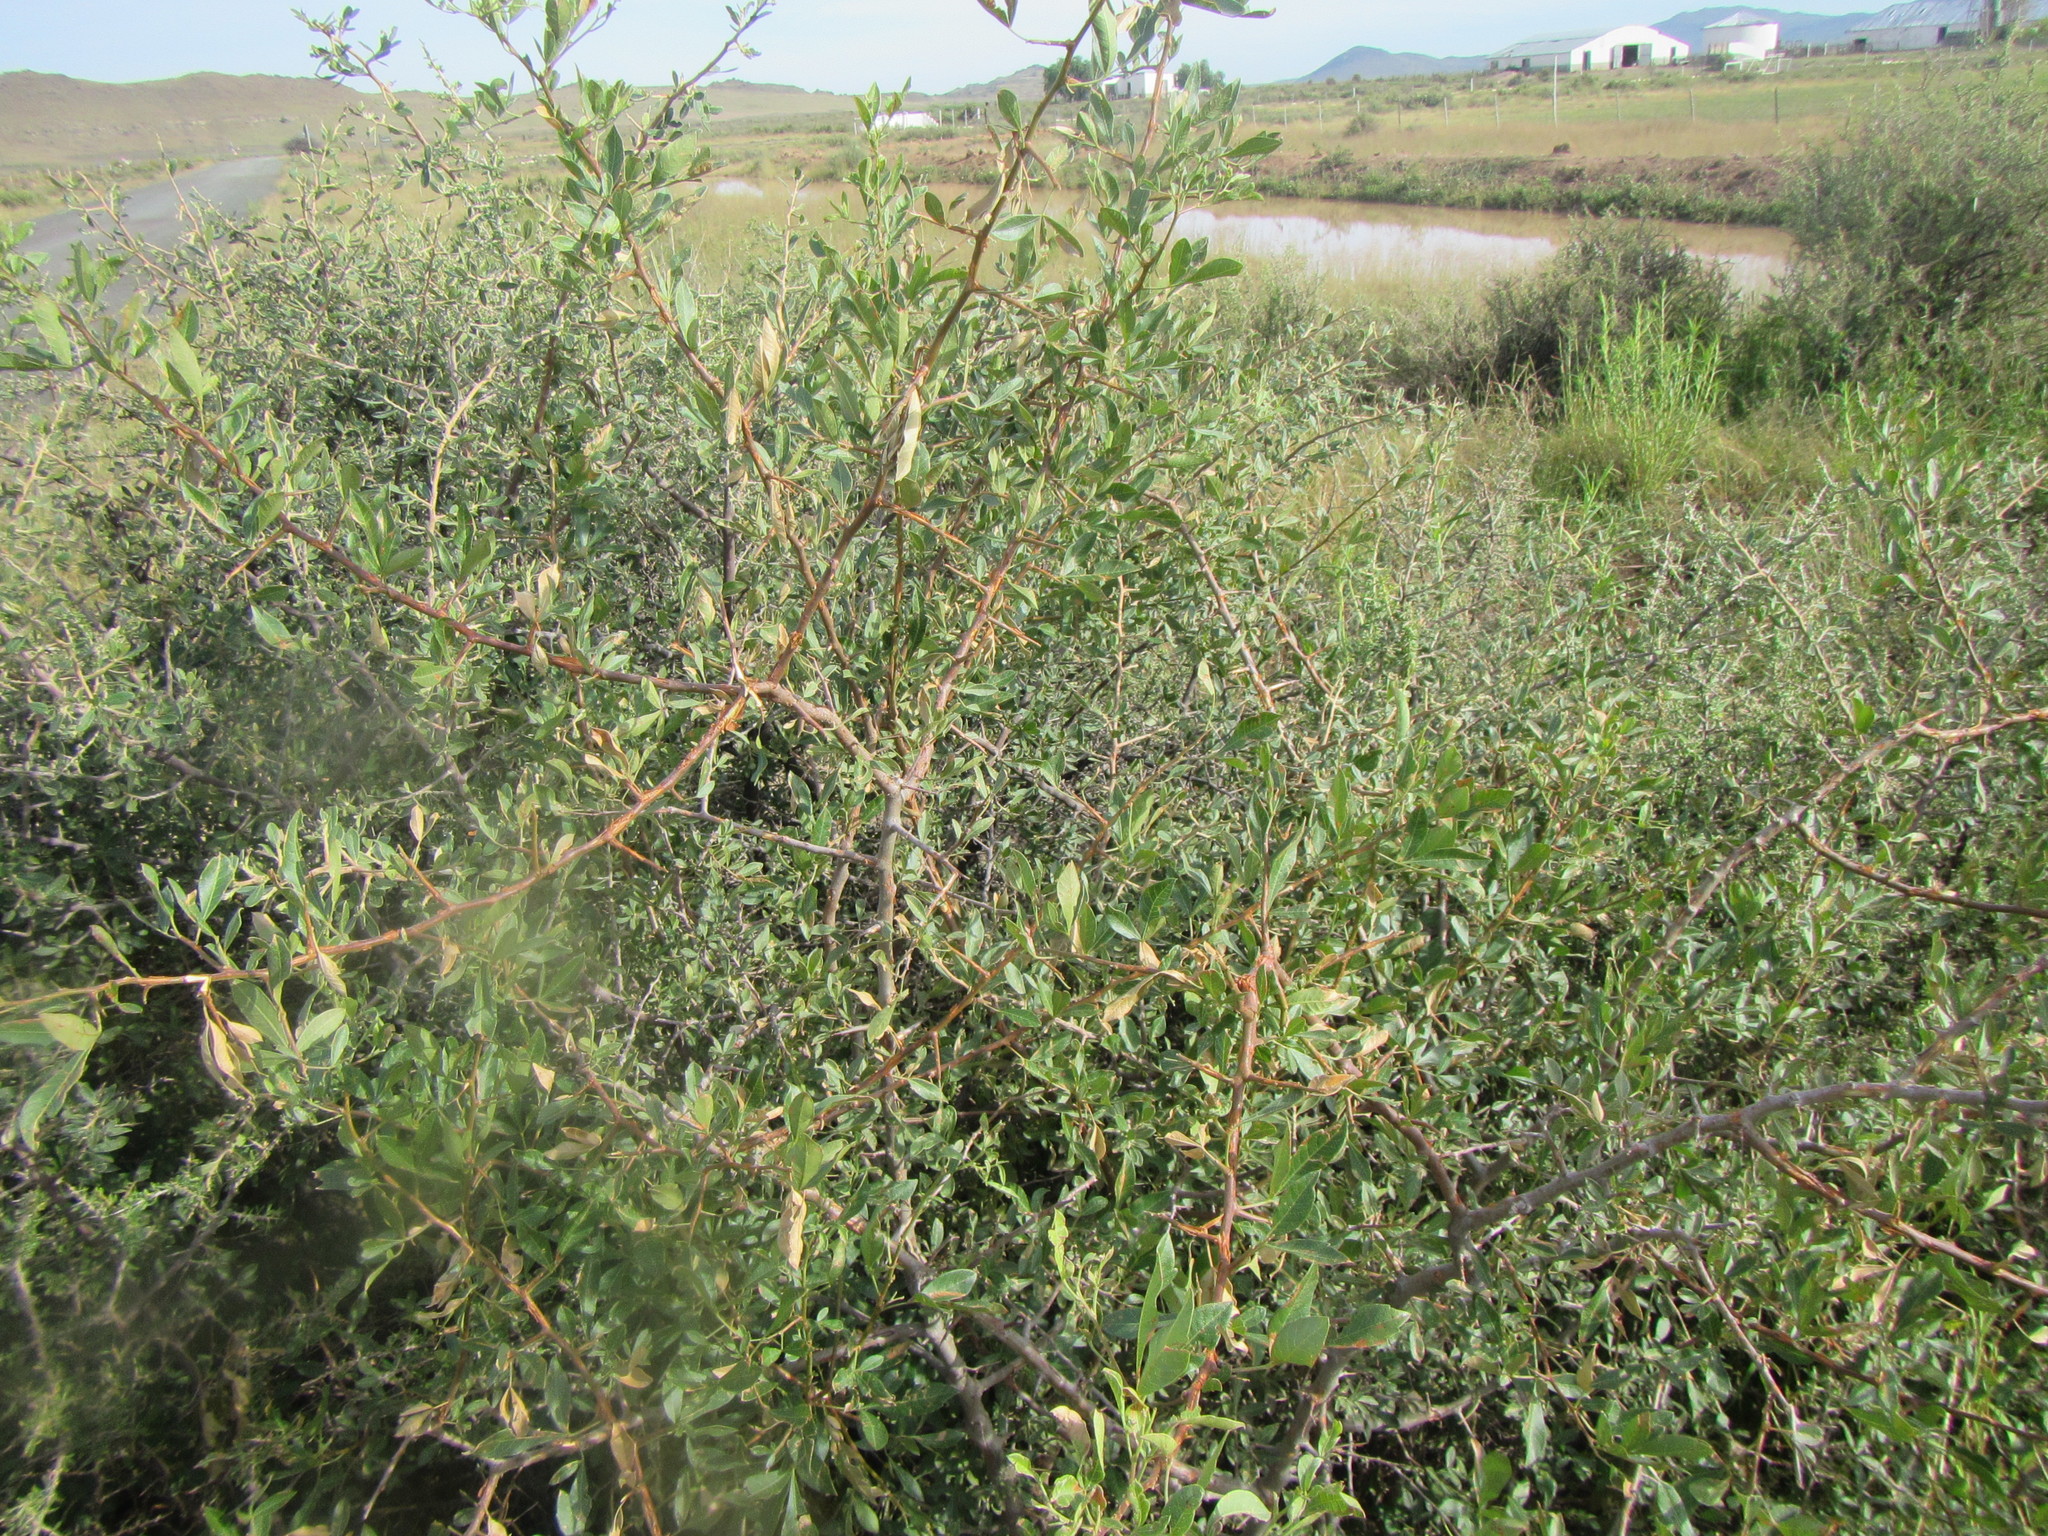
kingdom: Plantae
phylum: Tracheophyta
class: Magnoliopsida
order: Sapindales
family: Anacardiaceae
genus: Searsia
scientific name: Searsia pyroides
